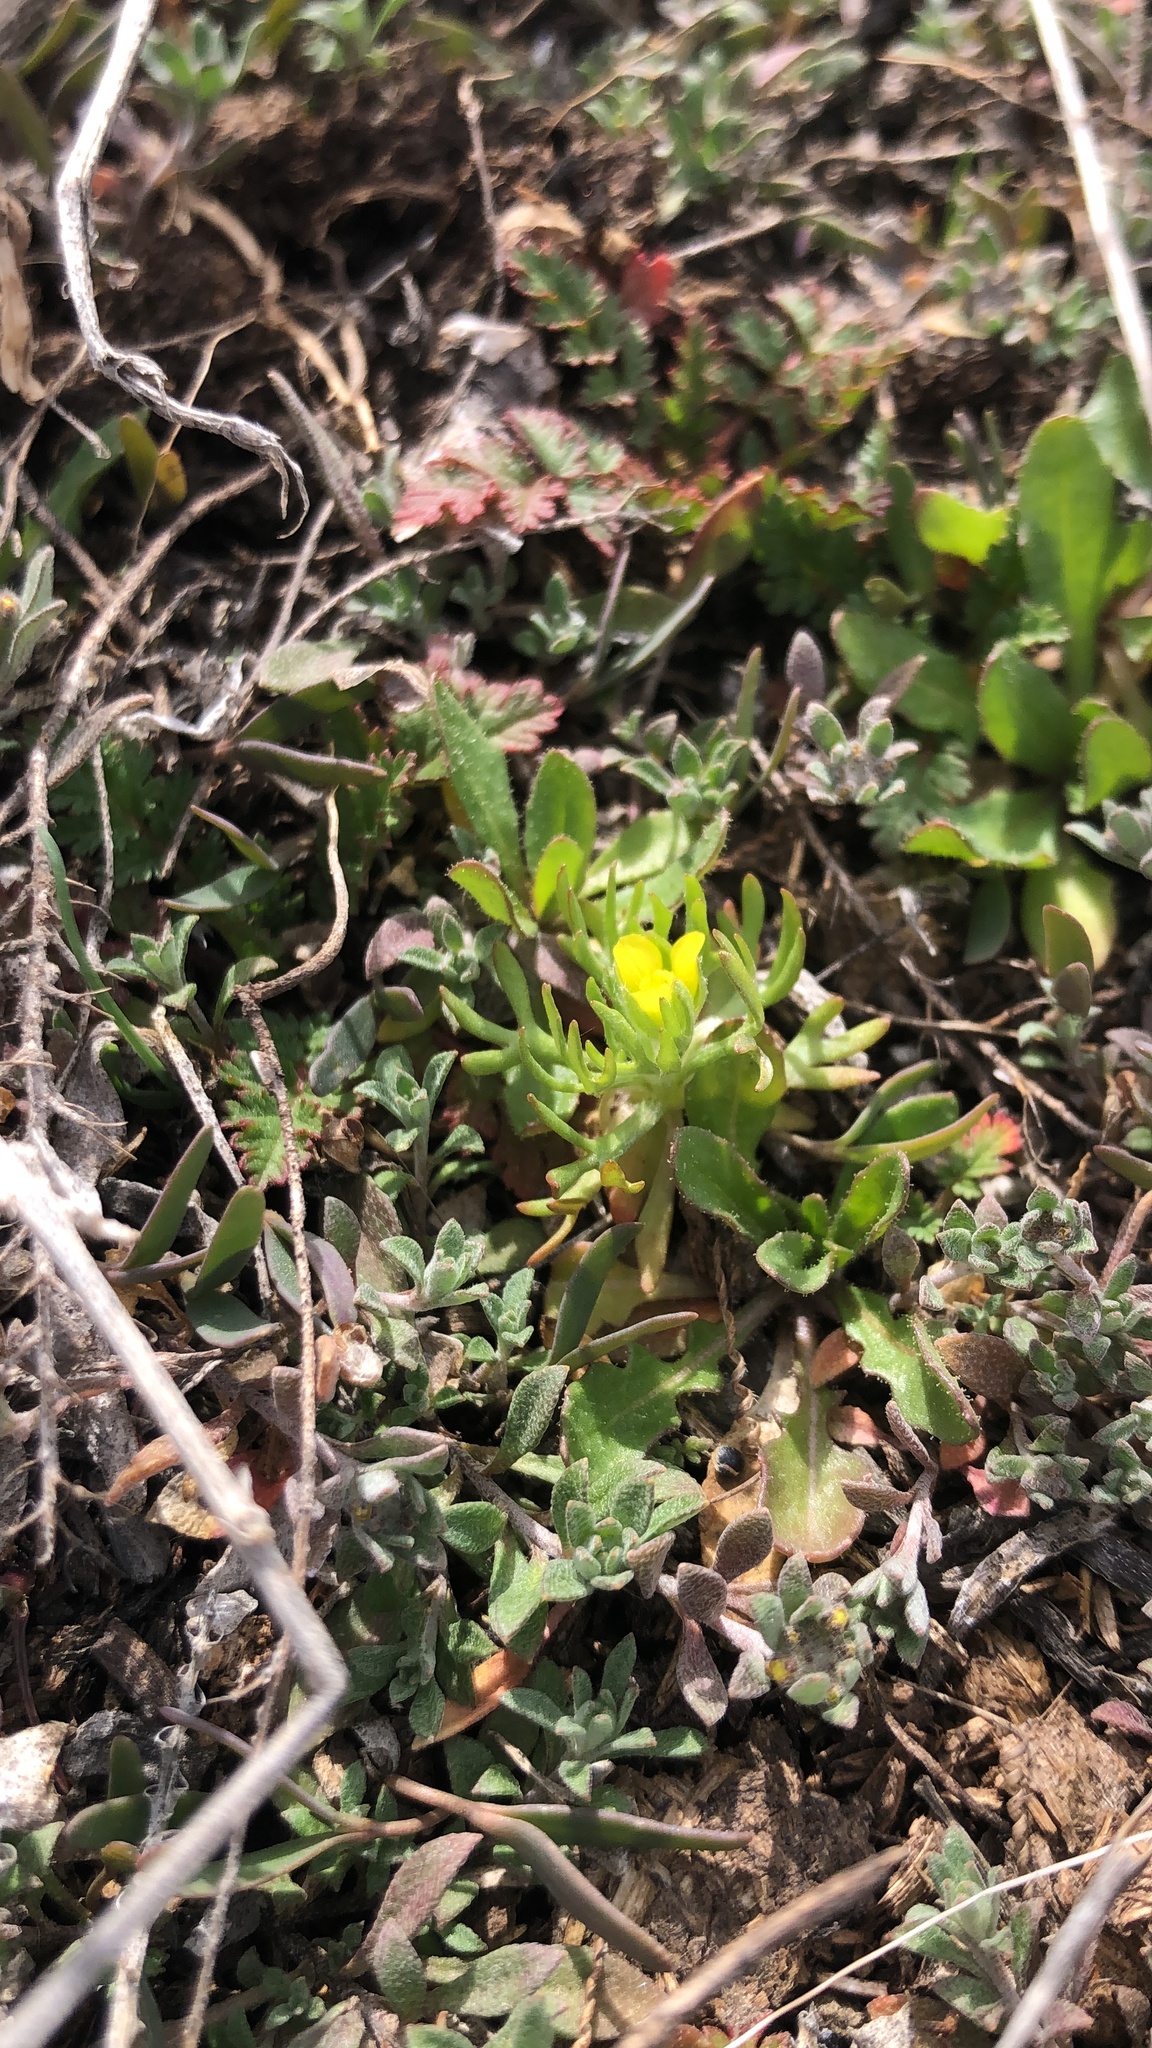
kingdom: Plantae
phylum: Tracheophyta
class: Magnoliopsida
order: Ranunculales
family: Ranunculaceae
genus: Ceratocephala
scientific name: Ceratocephala orthoceras
